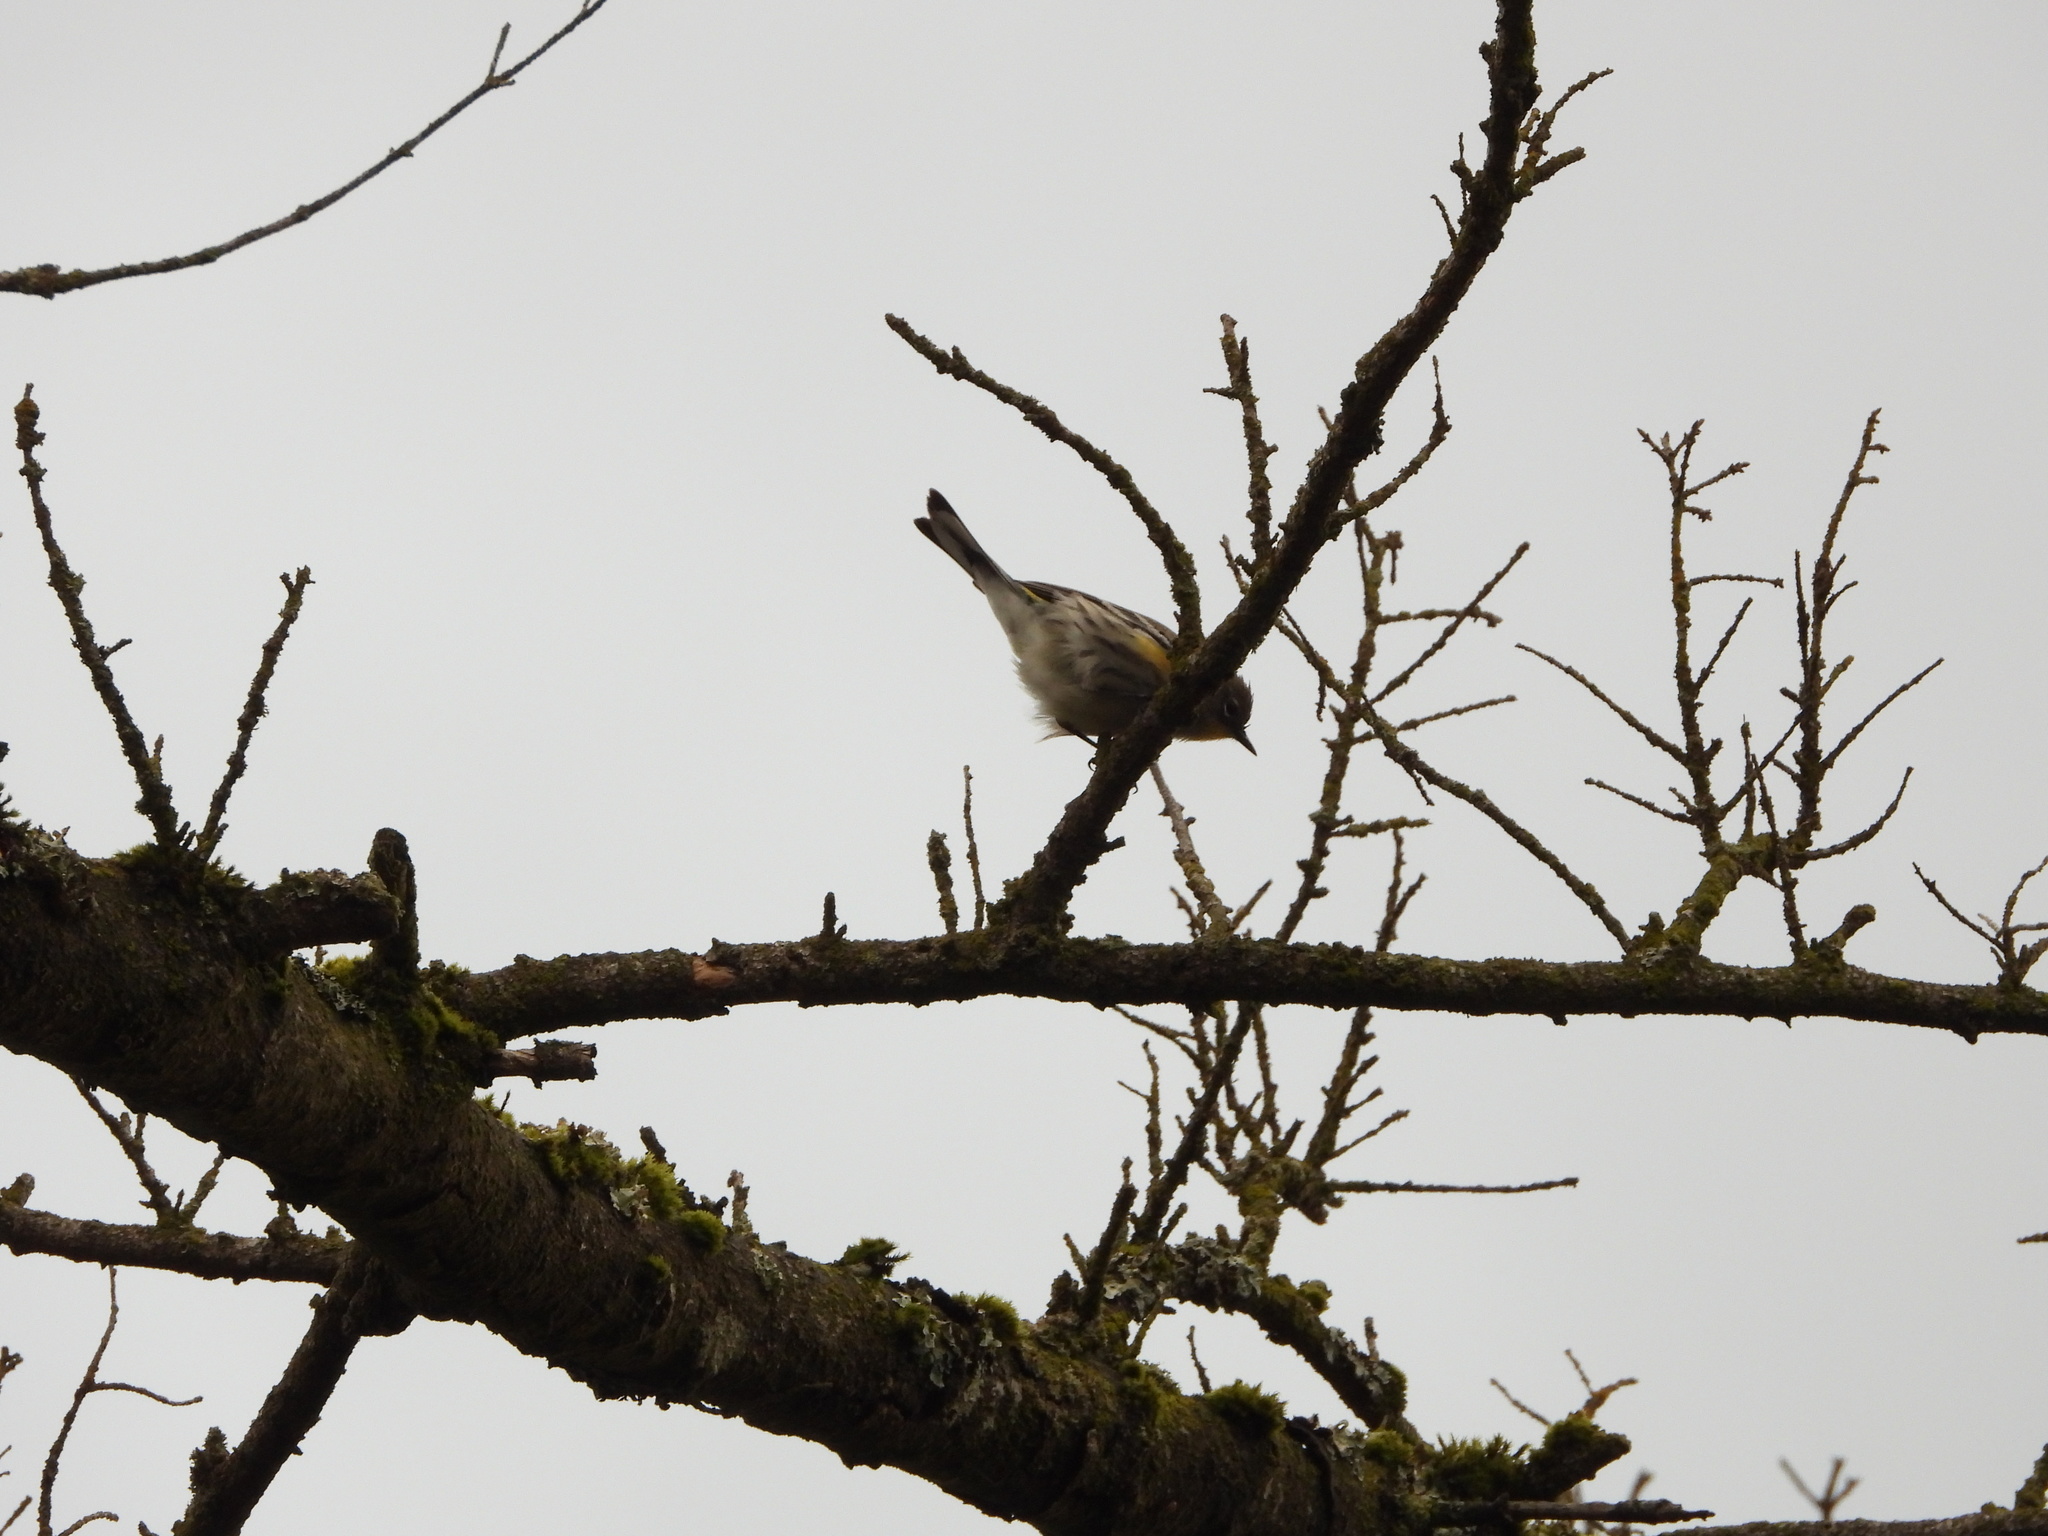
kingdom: Animalia
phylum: Chordata
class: Aves
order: Passeriformes
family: Parulidae
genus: Setophaga
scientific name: Setophaga auduboni
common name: Audubon's warbler
